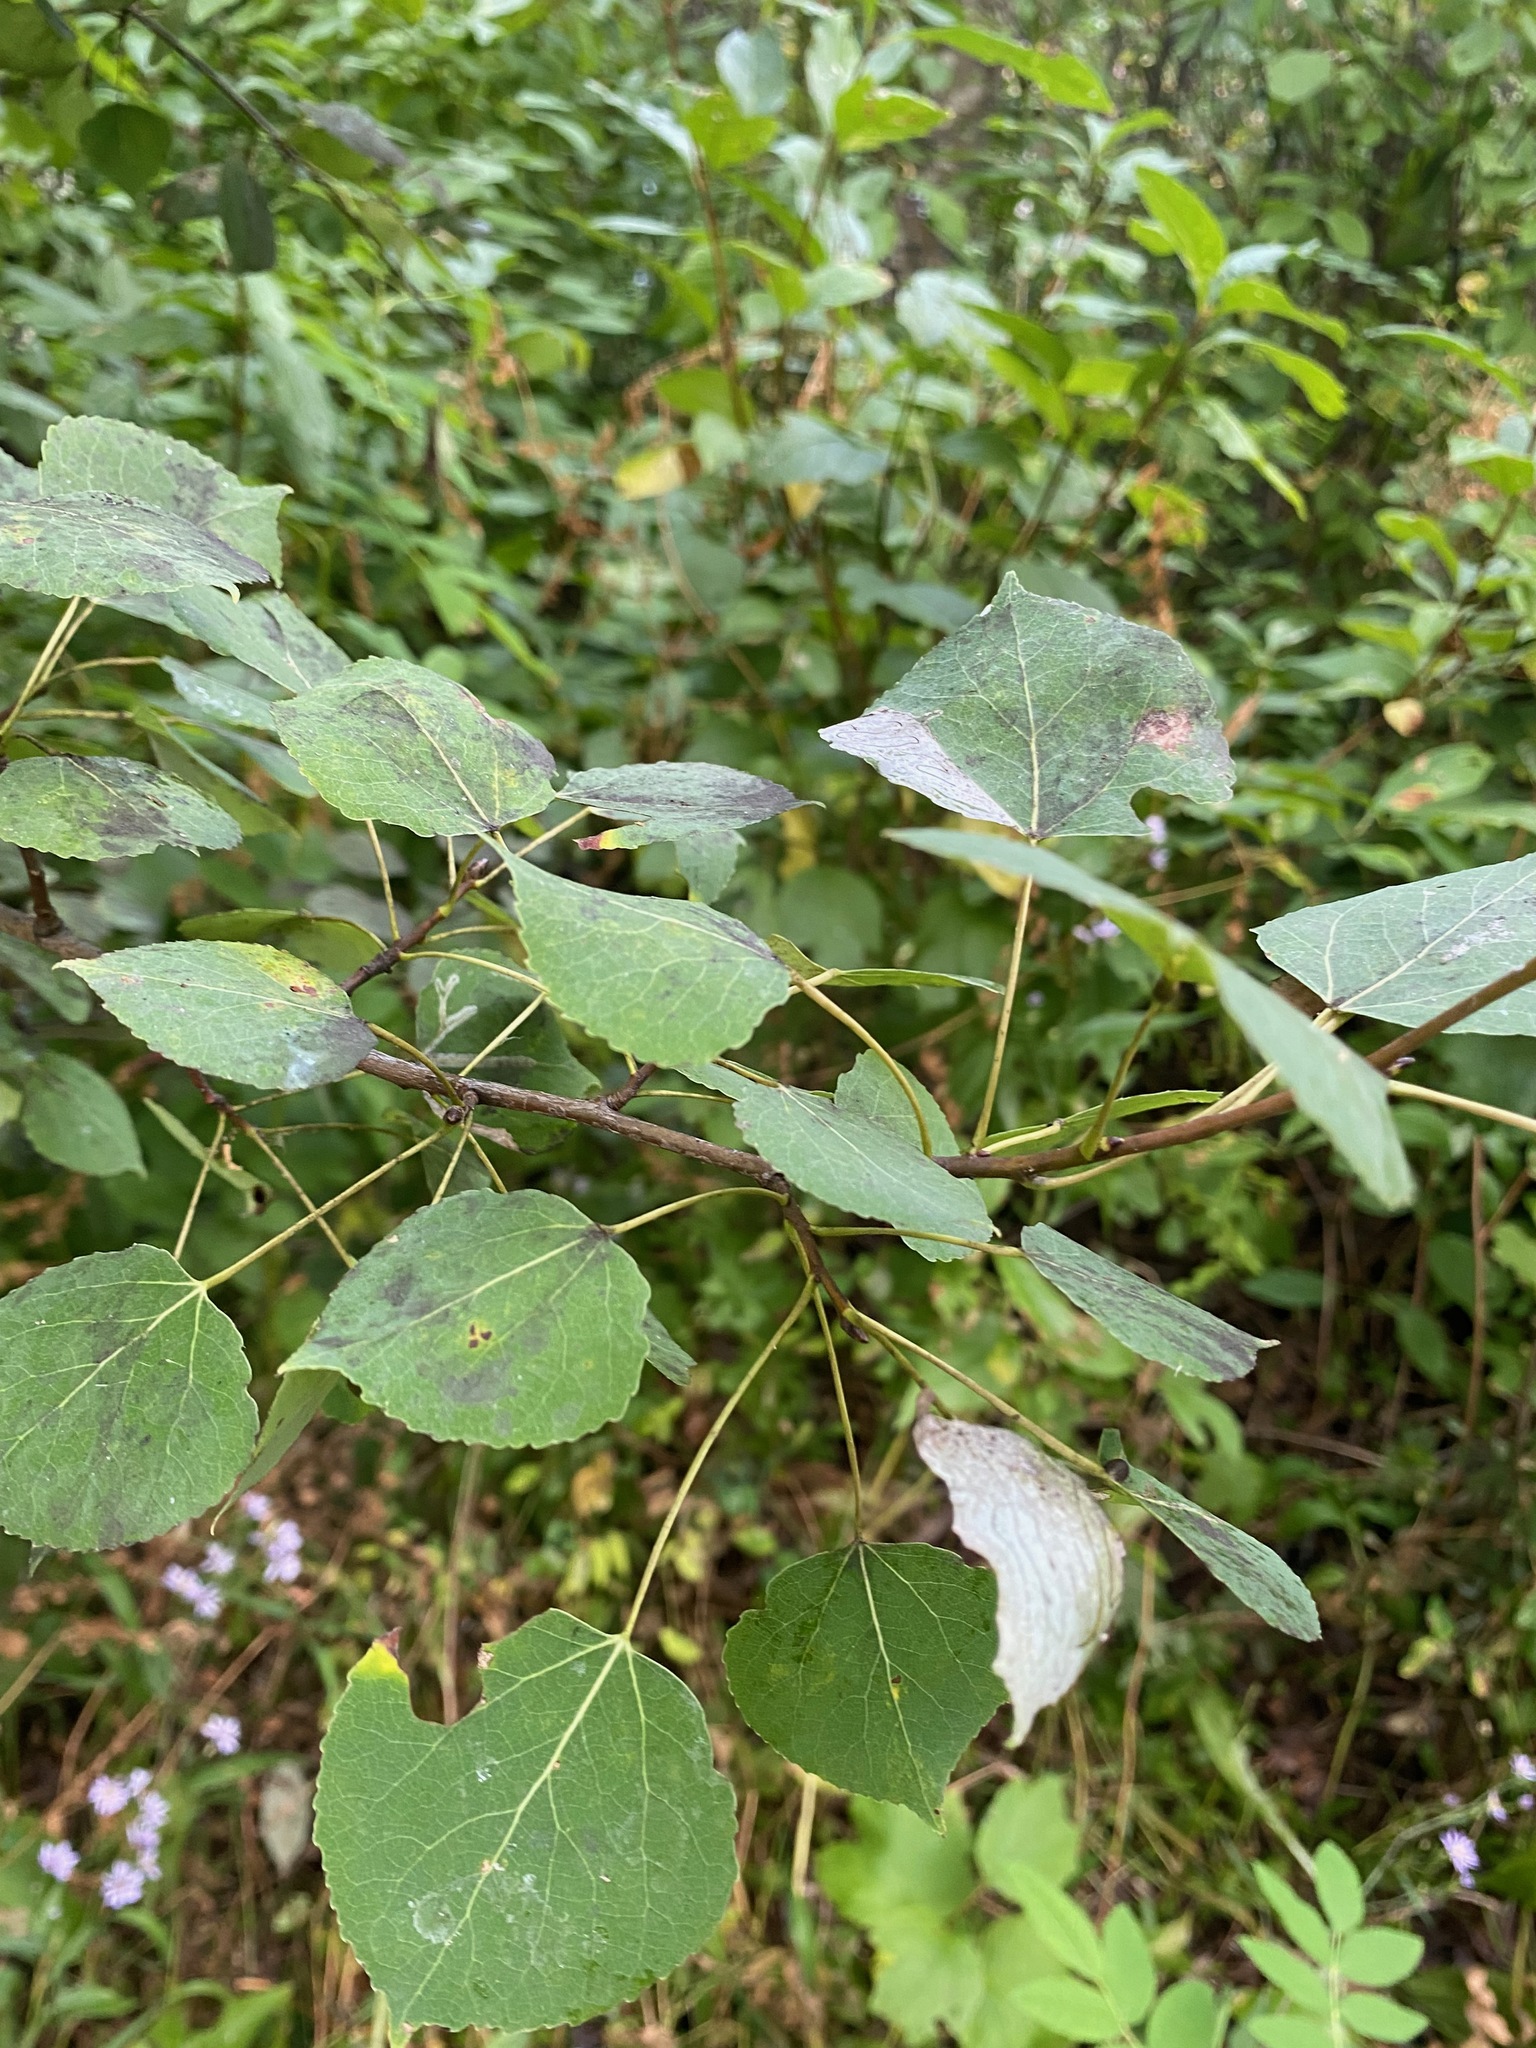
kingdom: Plantae
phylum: Tracheophyta
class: Magnoliopsida
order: Malpighiales
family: Salicaceae
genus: Populus
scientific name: Populus tremuloides
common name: Quaking aspen
